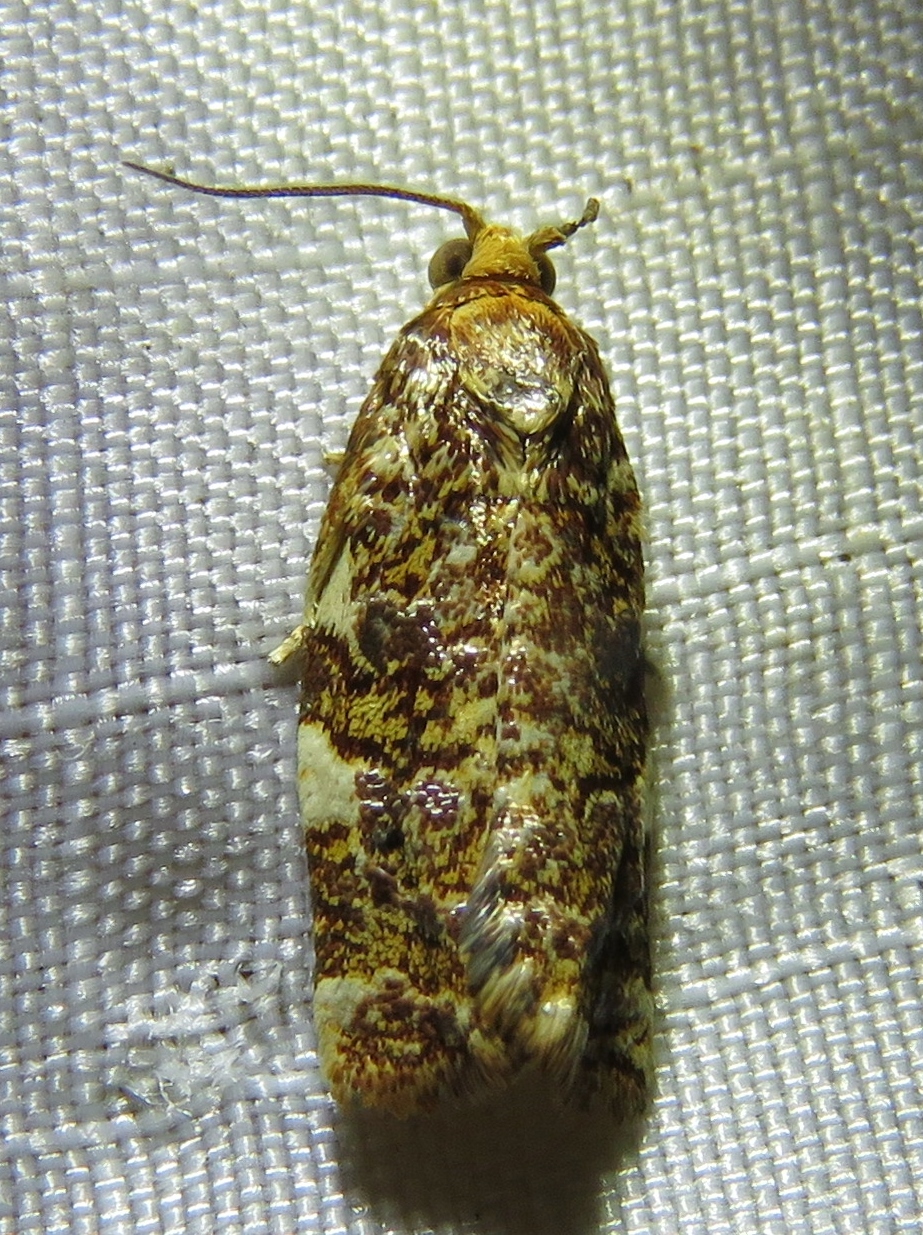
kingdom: Animalia
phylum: Arthropoda
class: Insecta
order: Lepidoptera
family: Tortricidae
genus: Archips
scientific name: Archips argyrospila
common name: Fruit-tree leafroller moth
